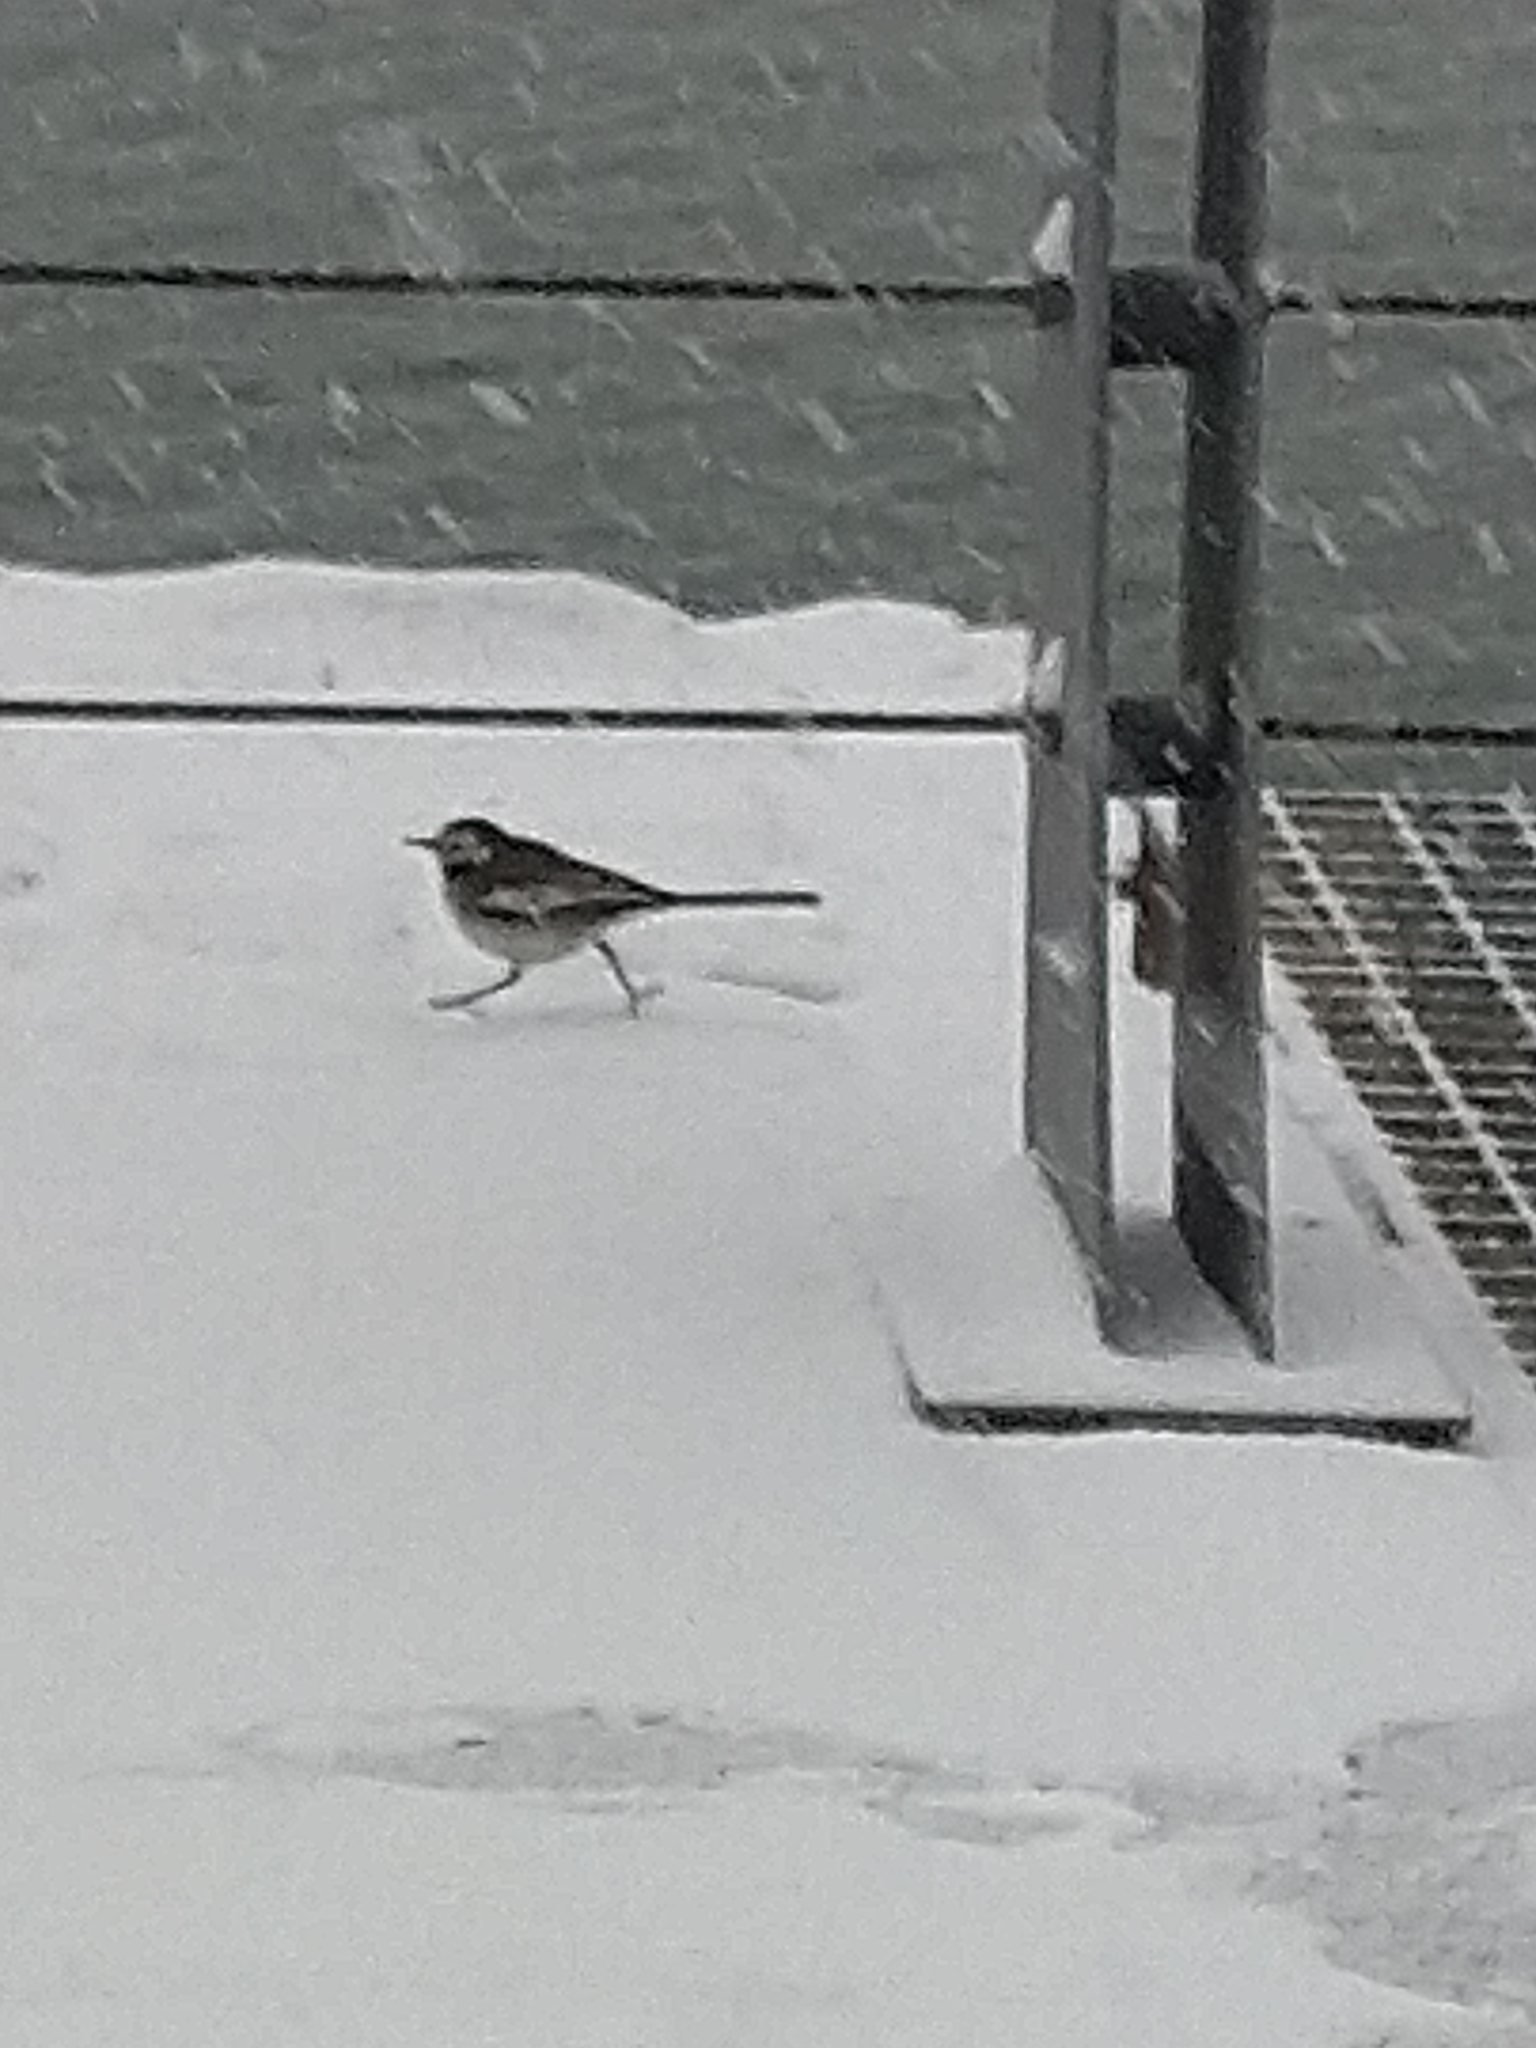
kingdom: Animalia
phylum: Chordata
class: Aves
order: Passeriformes
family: Motacillidae
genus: Motacilla
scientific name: Motacilla alba
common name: White wagtail
